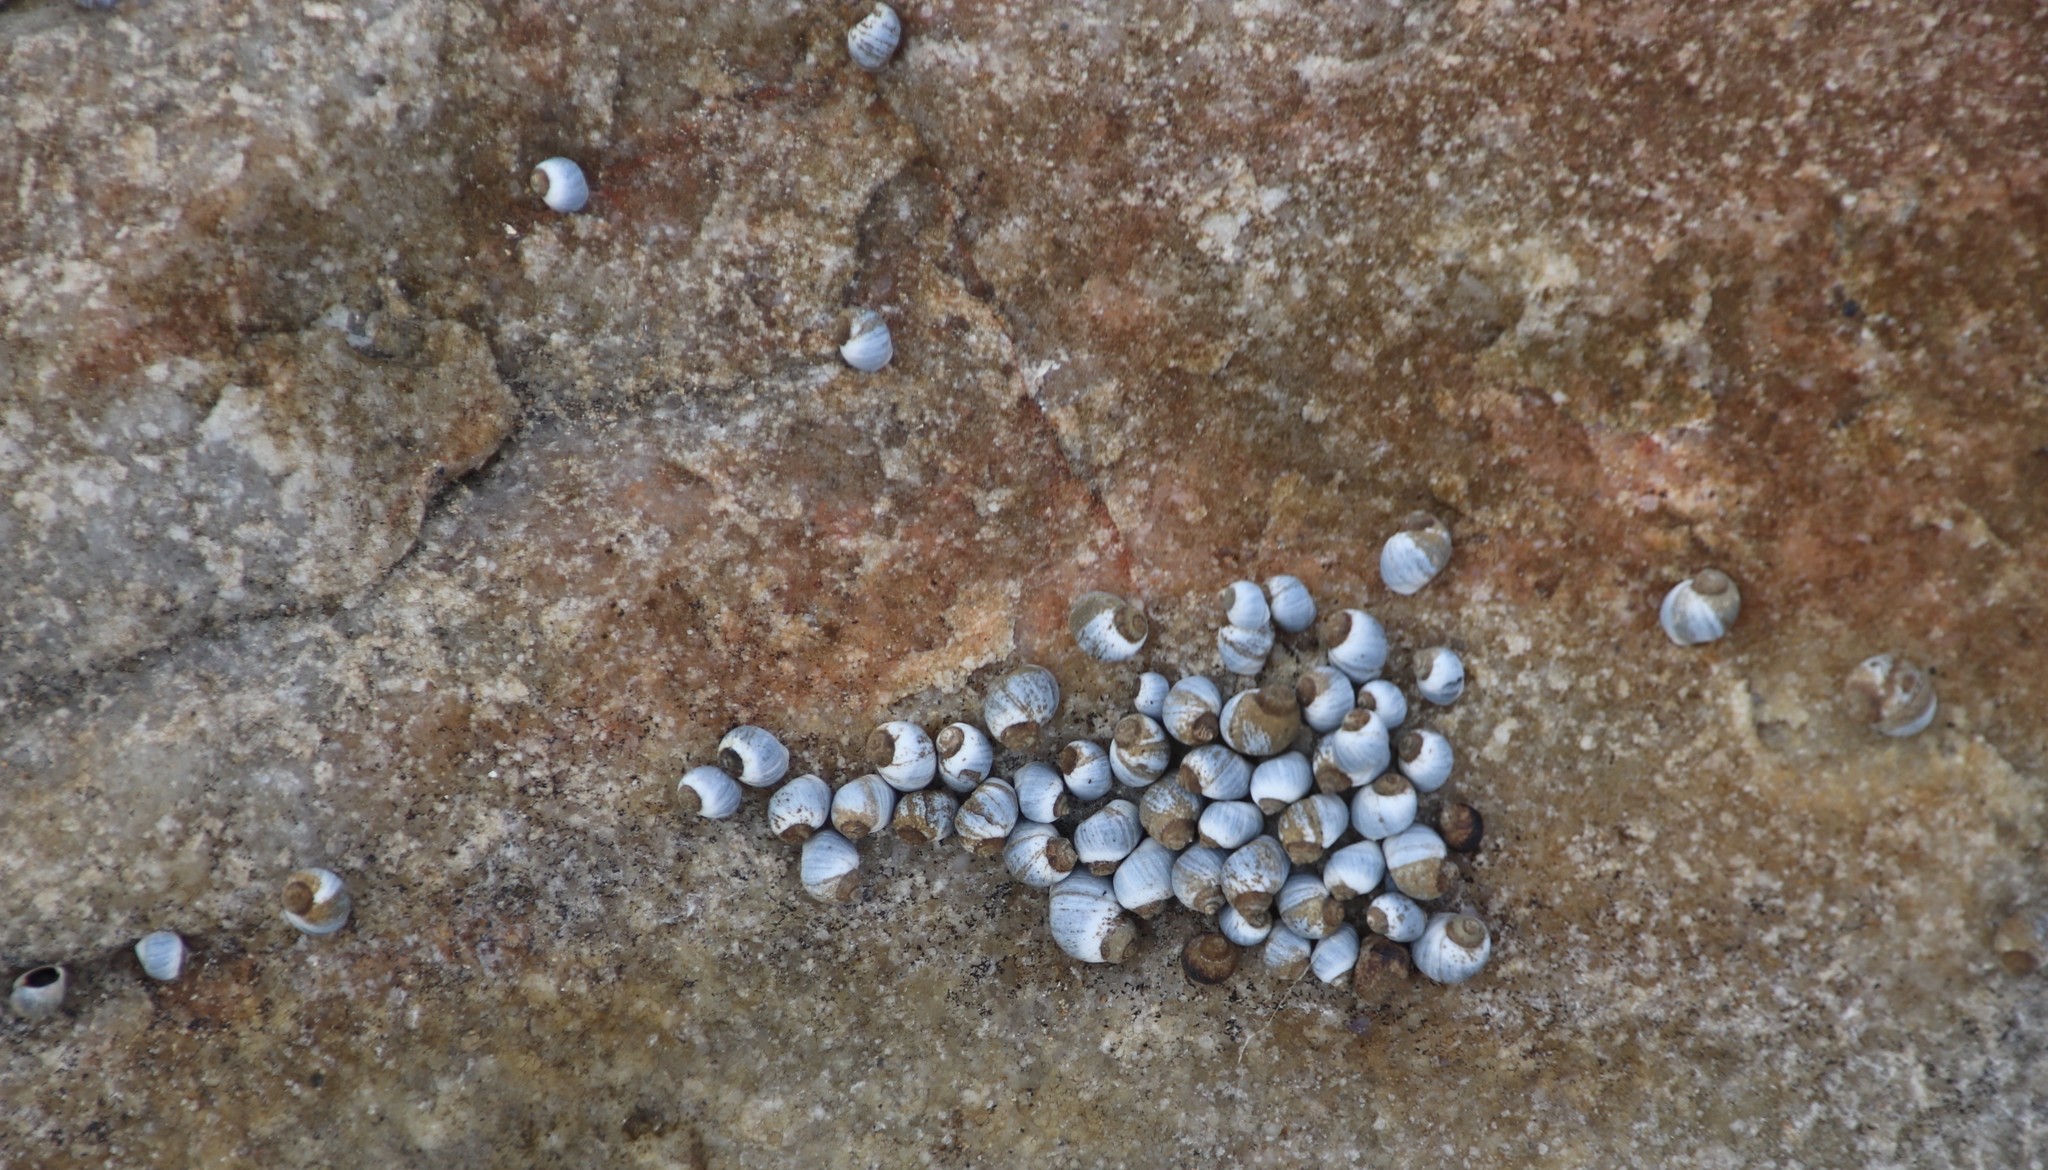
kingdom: Animalia
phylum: Mollusca
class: Gastropoda
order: Littorinimorpha
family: Littorinidae
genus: Afrolittorina
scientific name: Afrolittorina africana
